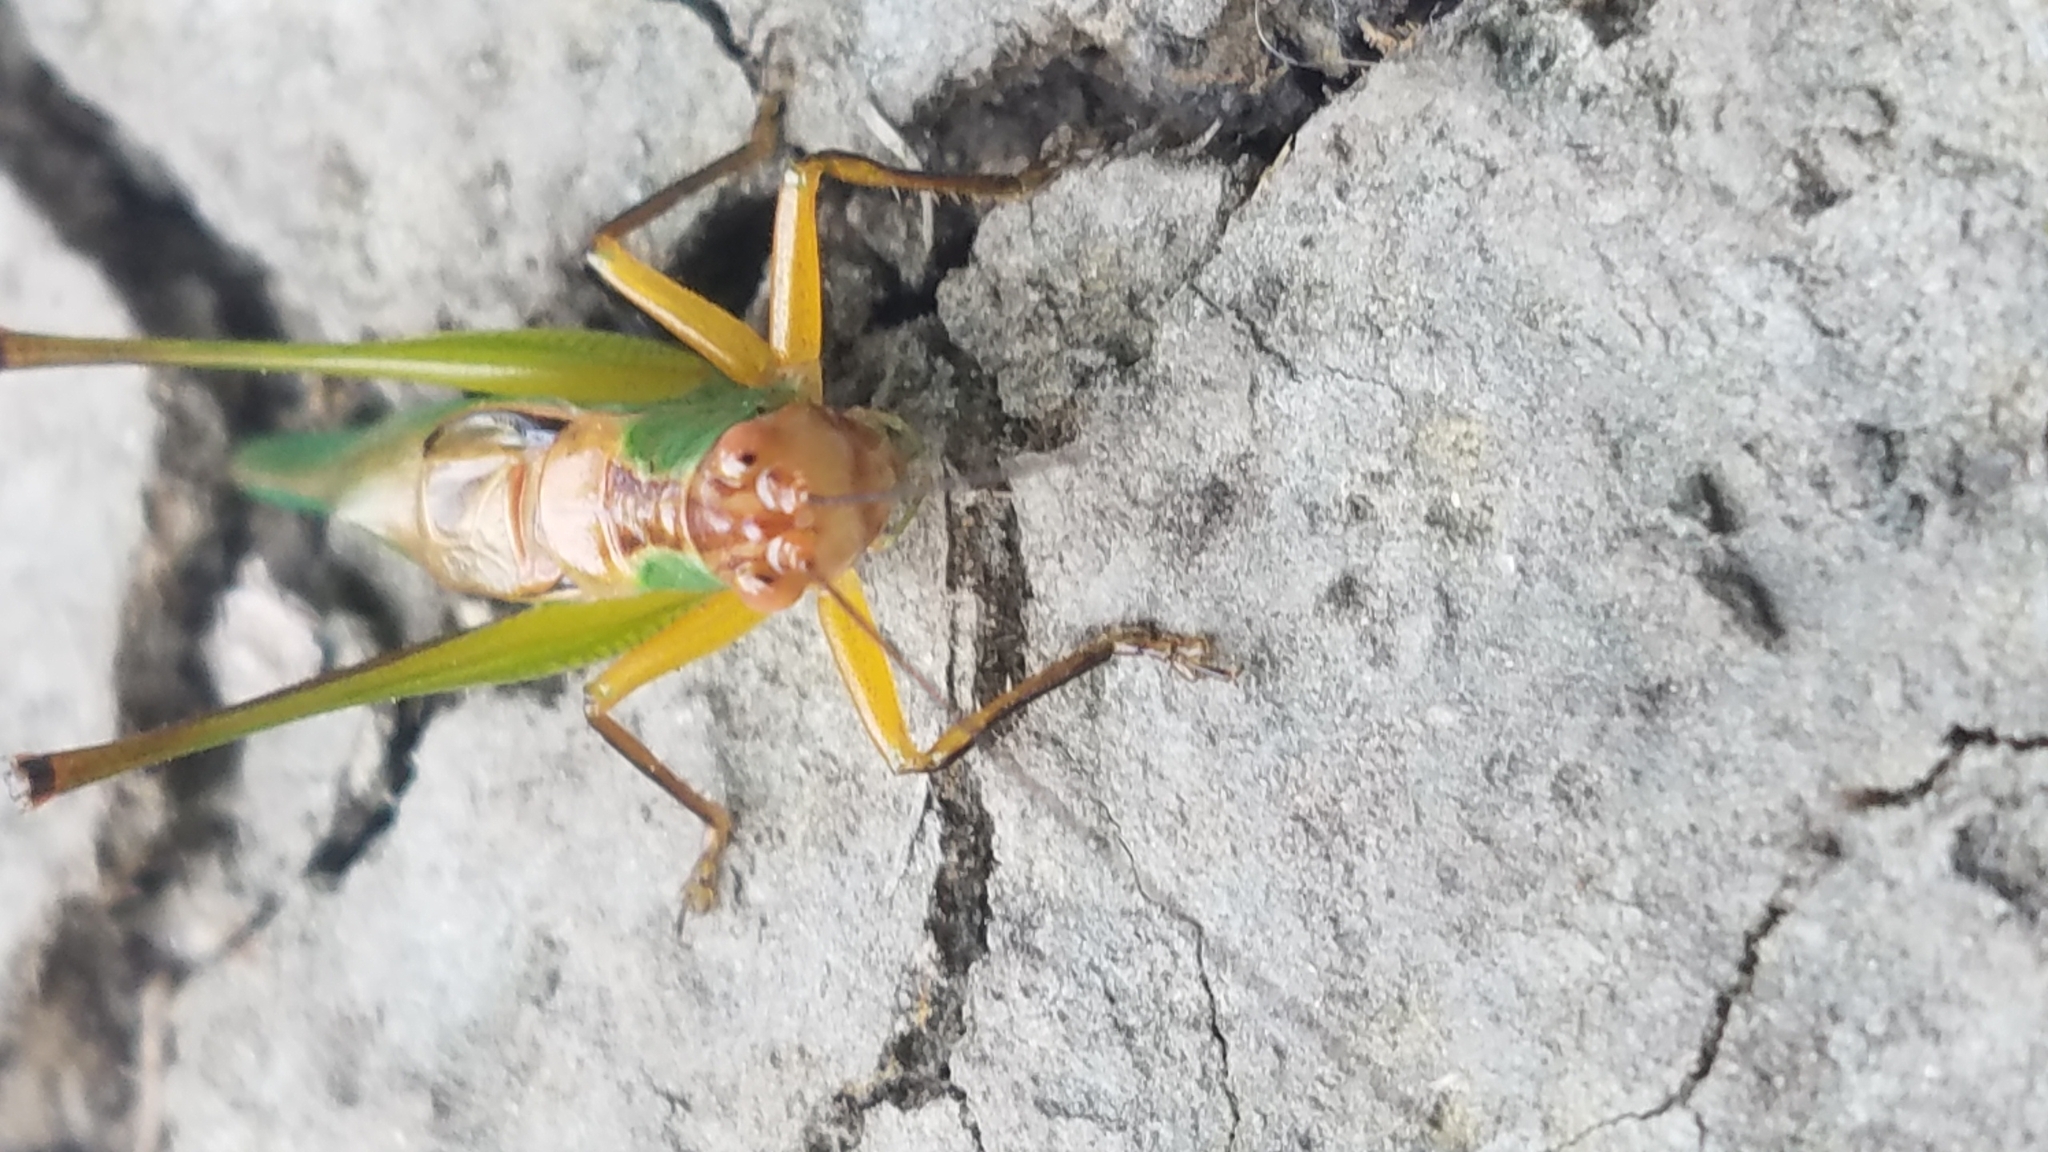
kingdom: Animalia
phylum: Arthropoda
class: Insecta
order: Orthoptera
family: Tettigoniidae
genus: Orchelimum
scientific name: Orchelimum nigripes
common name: Black-legged meadow katydid
